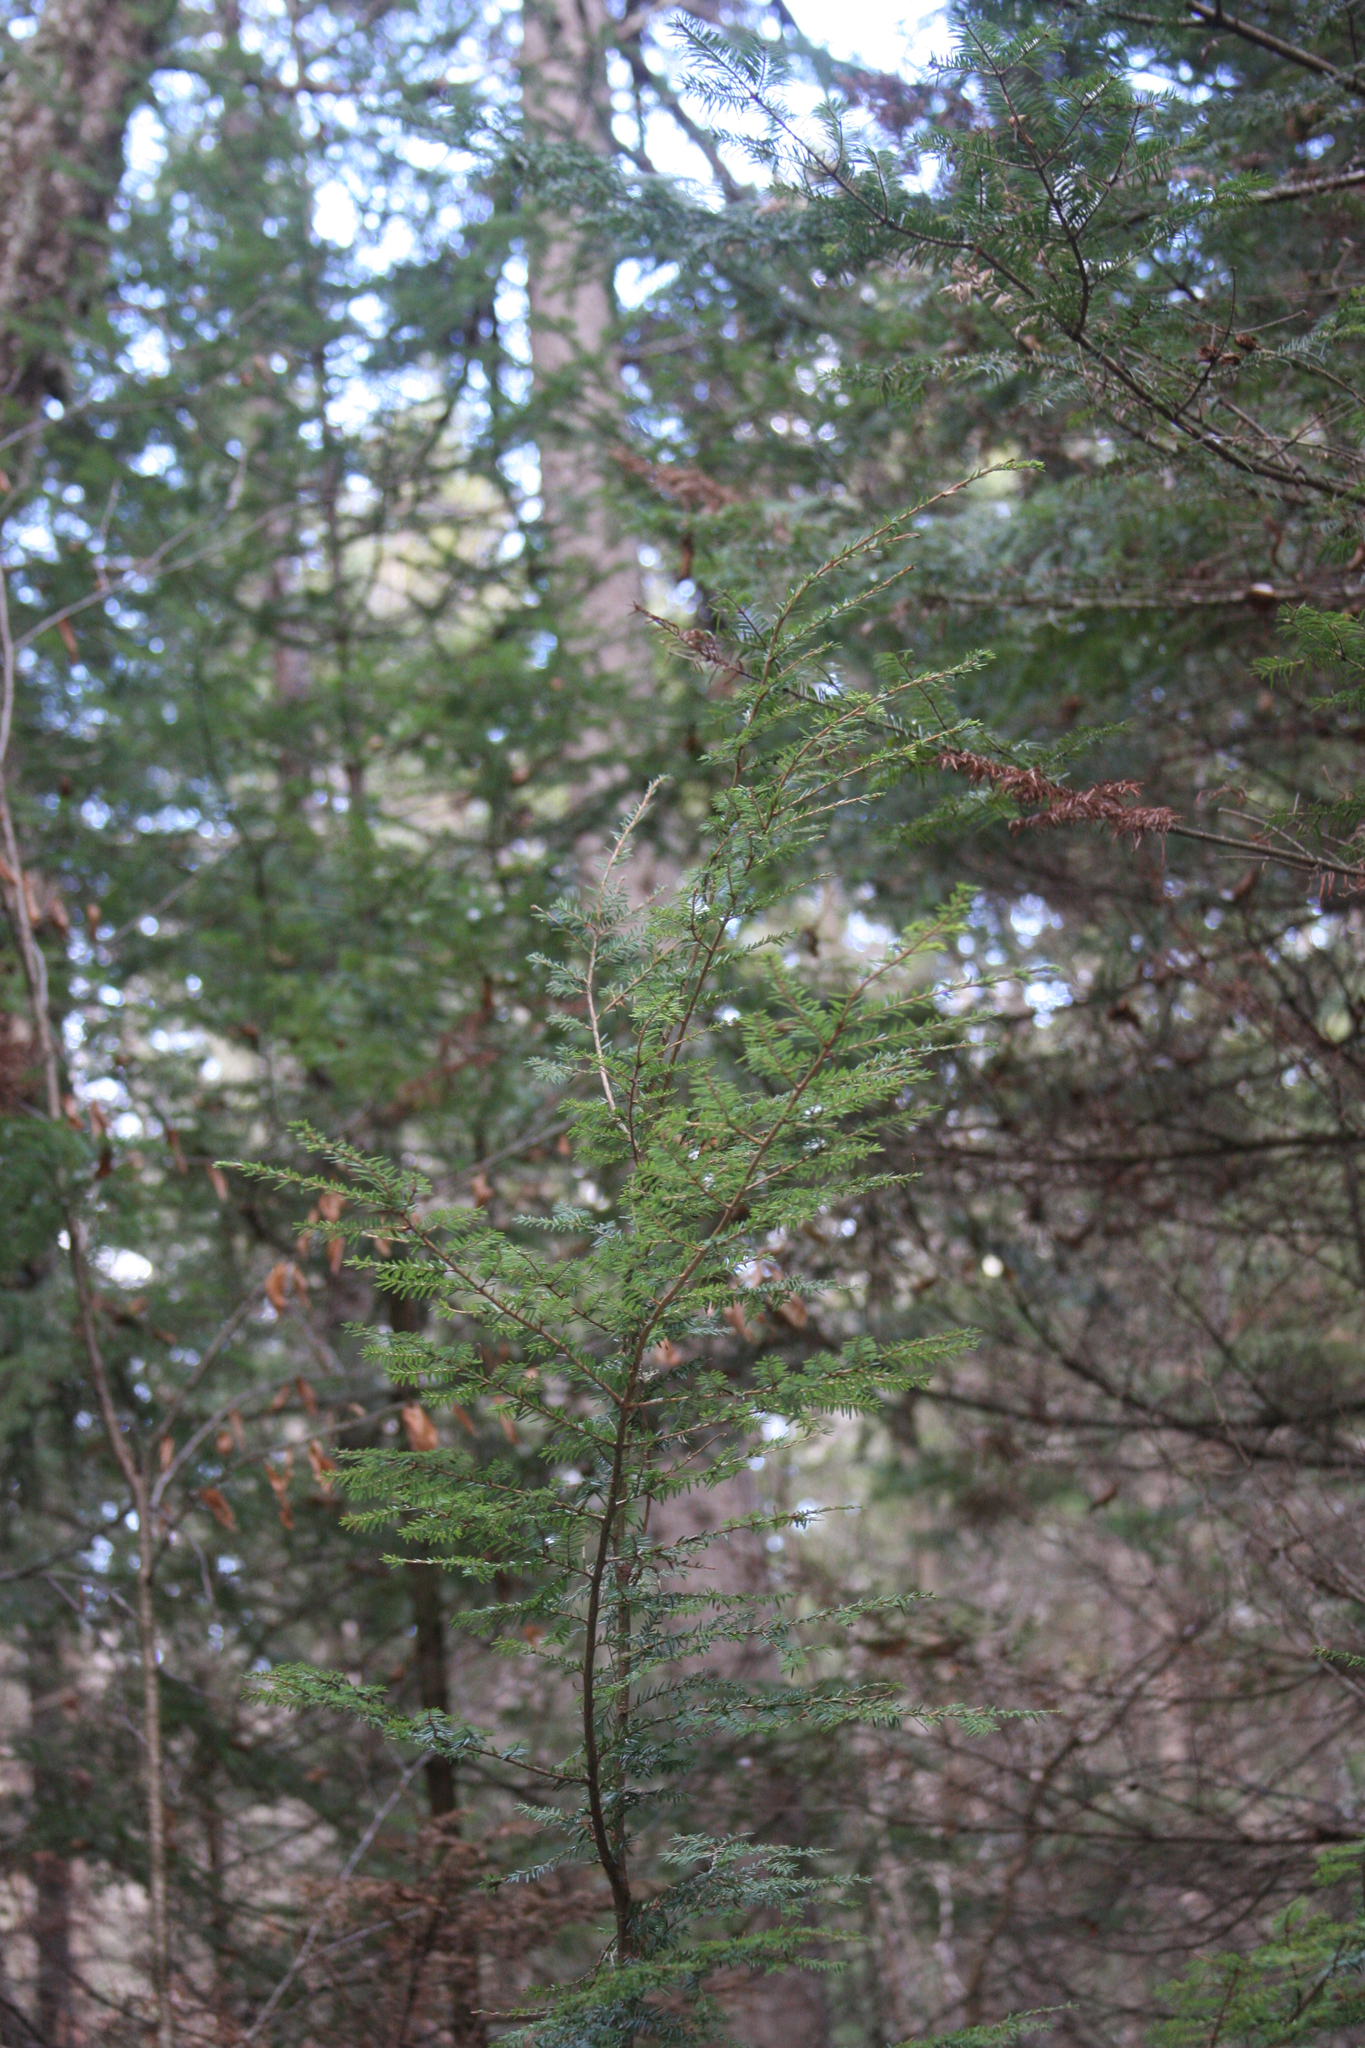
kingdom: Plantae
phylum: Tracheophyta
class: Pinopsida
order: Pinales
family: Pinaceae
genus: Tsuga
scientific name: Tsuga canadensis
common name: Eastern hemlock
